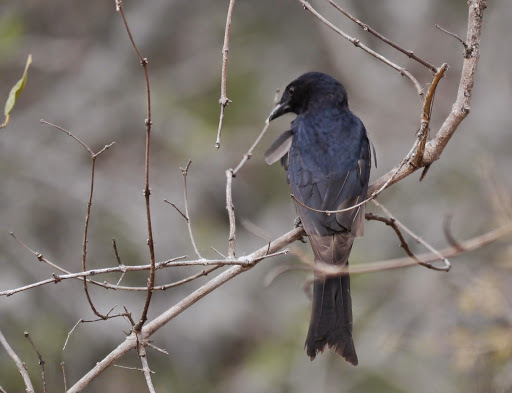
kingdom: Animalia
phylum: Chordata
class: Aves
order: Passeriformes
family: Dicruridae
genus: Dicrurus
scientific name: Dicrurus adsimilis
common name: Fork-tailed drongo
